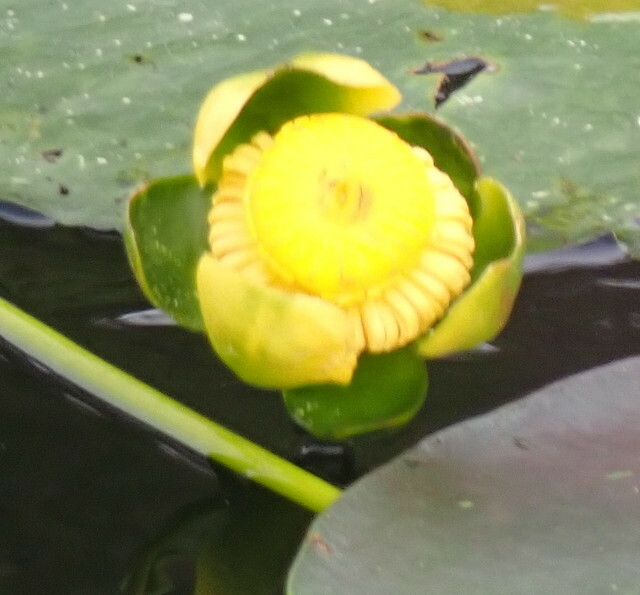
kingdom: Plantae
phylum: Tracheophyta
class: Magnoliopsida
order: Nymphaeales
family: Nymphaeaceae
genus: Nuphar
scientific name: Nuphar advena
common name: Spatter-dock
